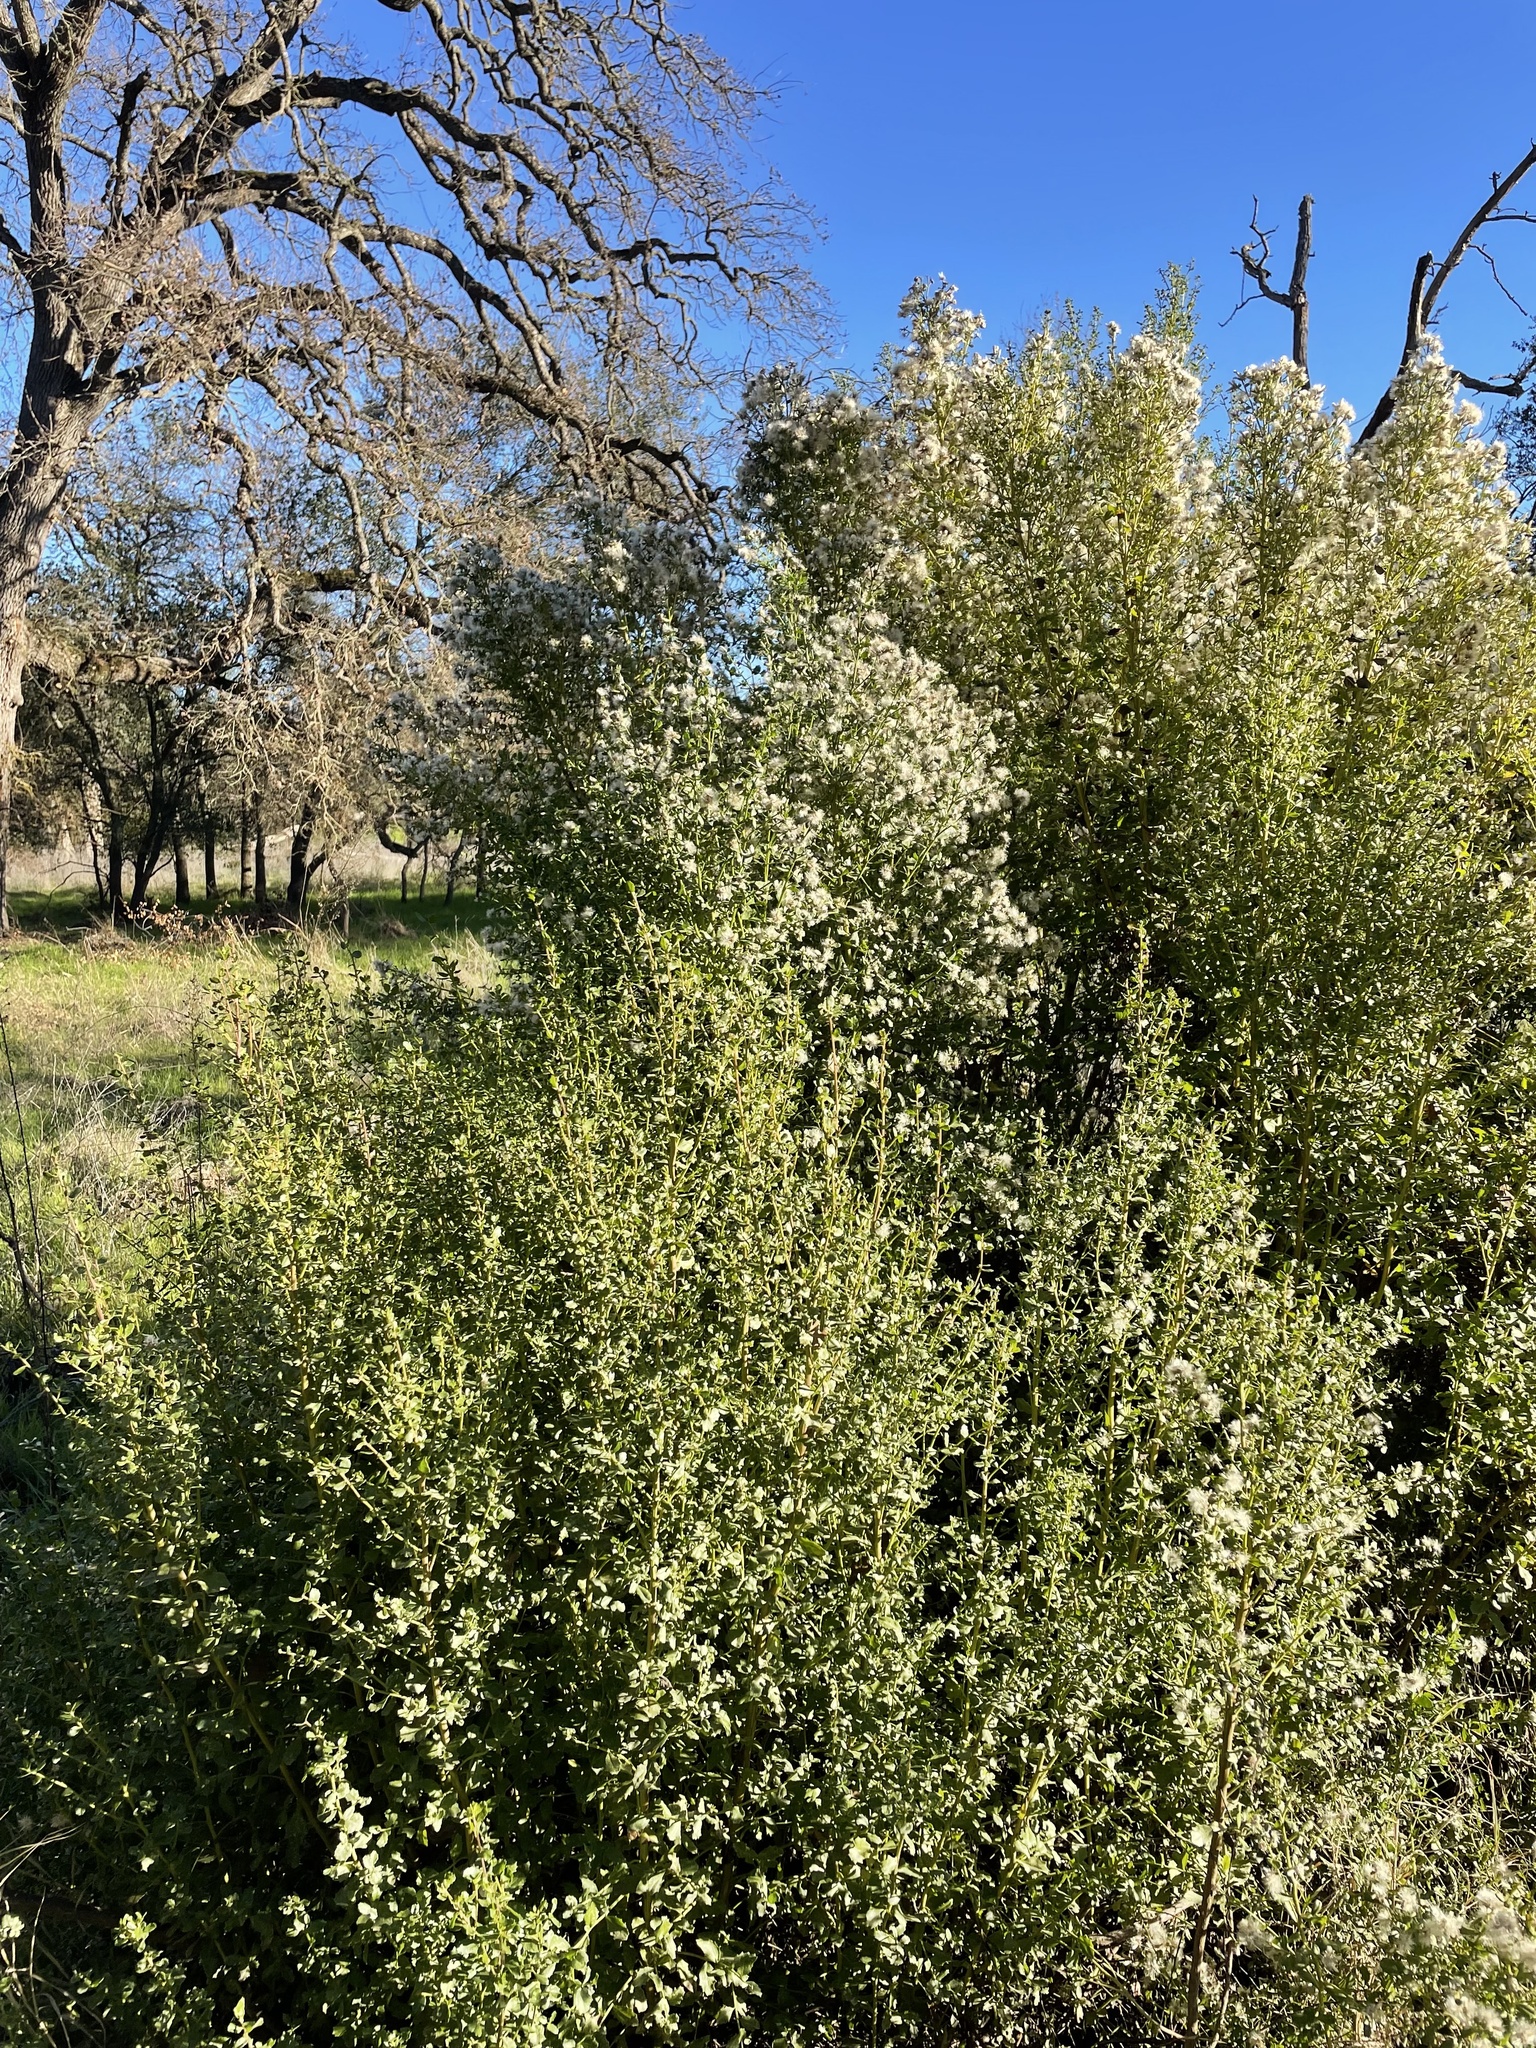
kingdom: Plantae
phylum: Tracheophyta
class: Magnoliopsida
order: Asterales
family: Asteraceae
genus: Baccharis
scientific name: Baccharis pilularis
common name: Coyotebrush
